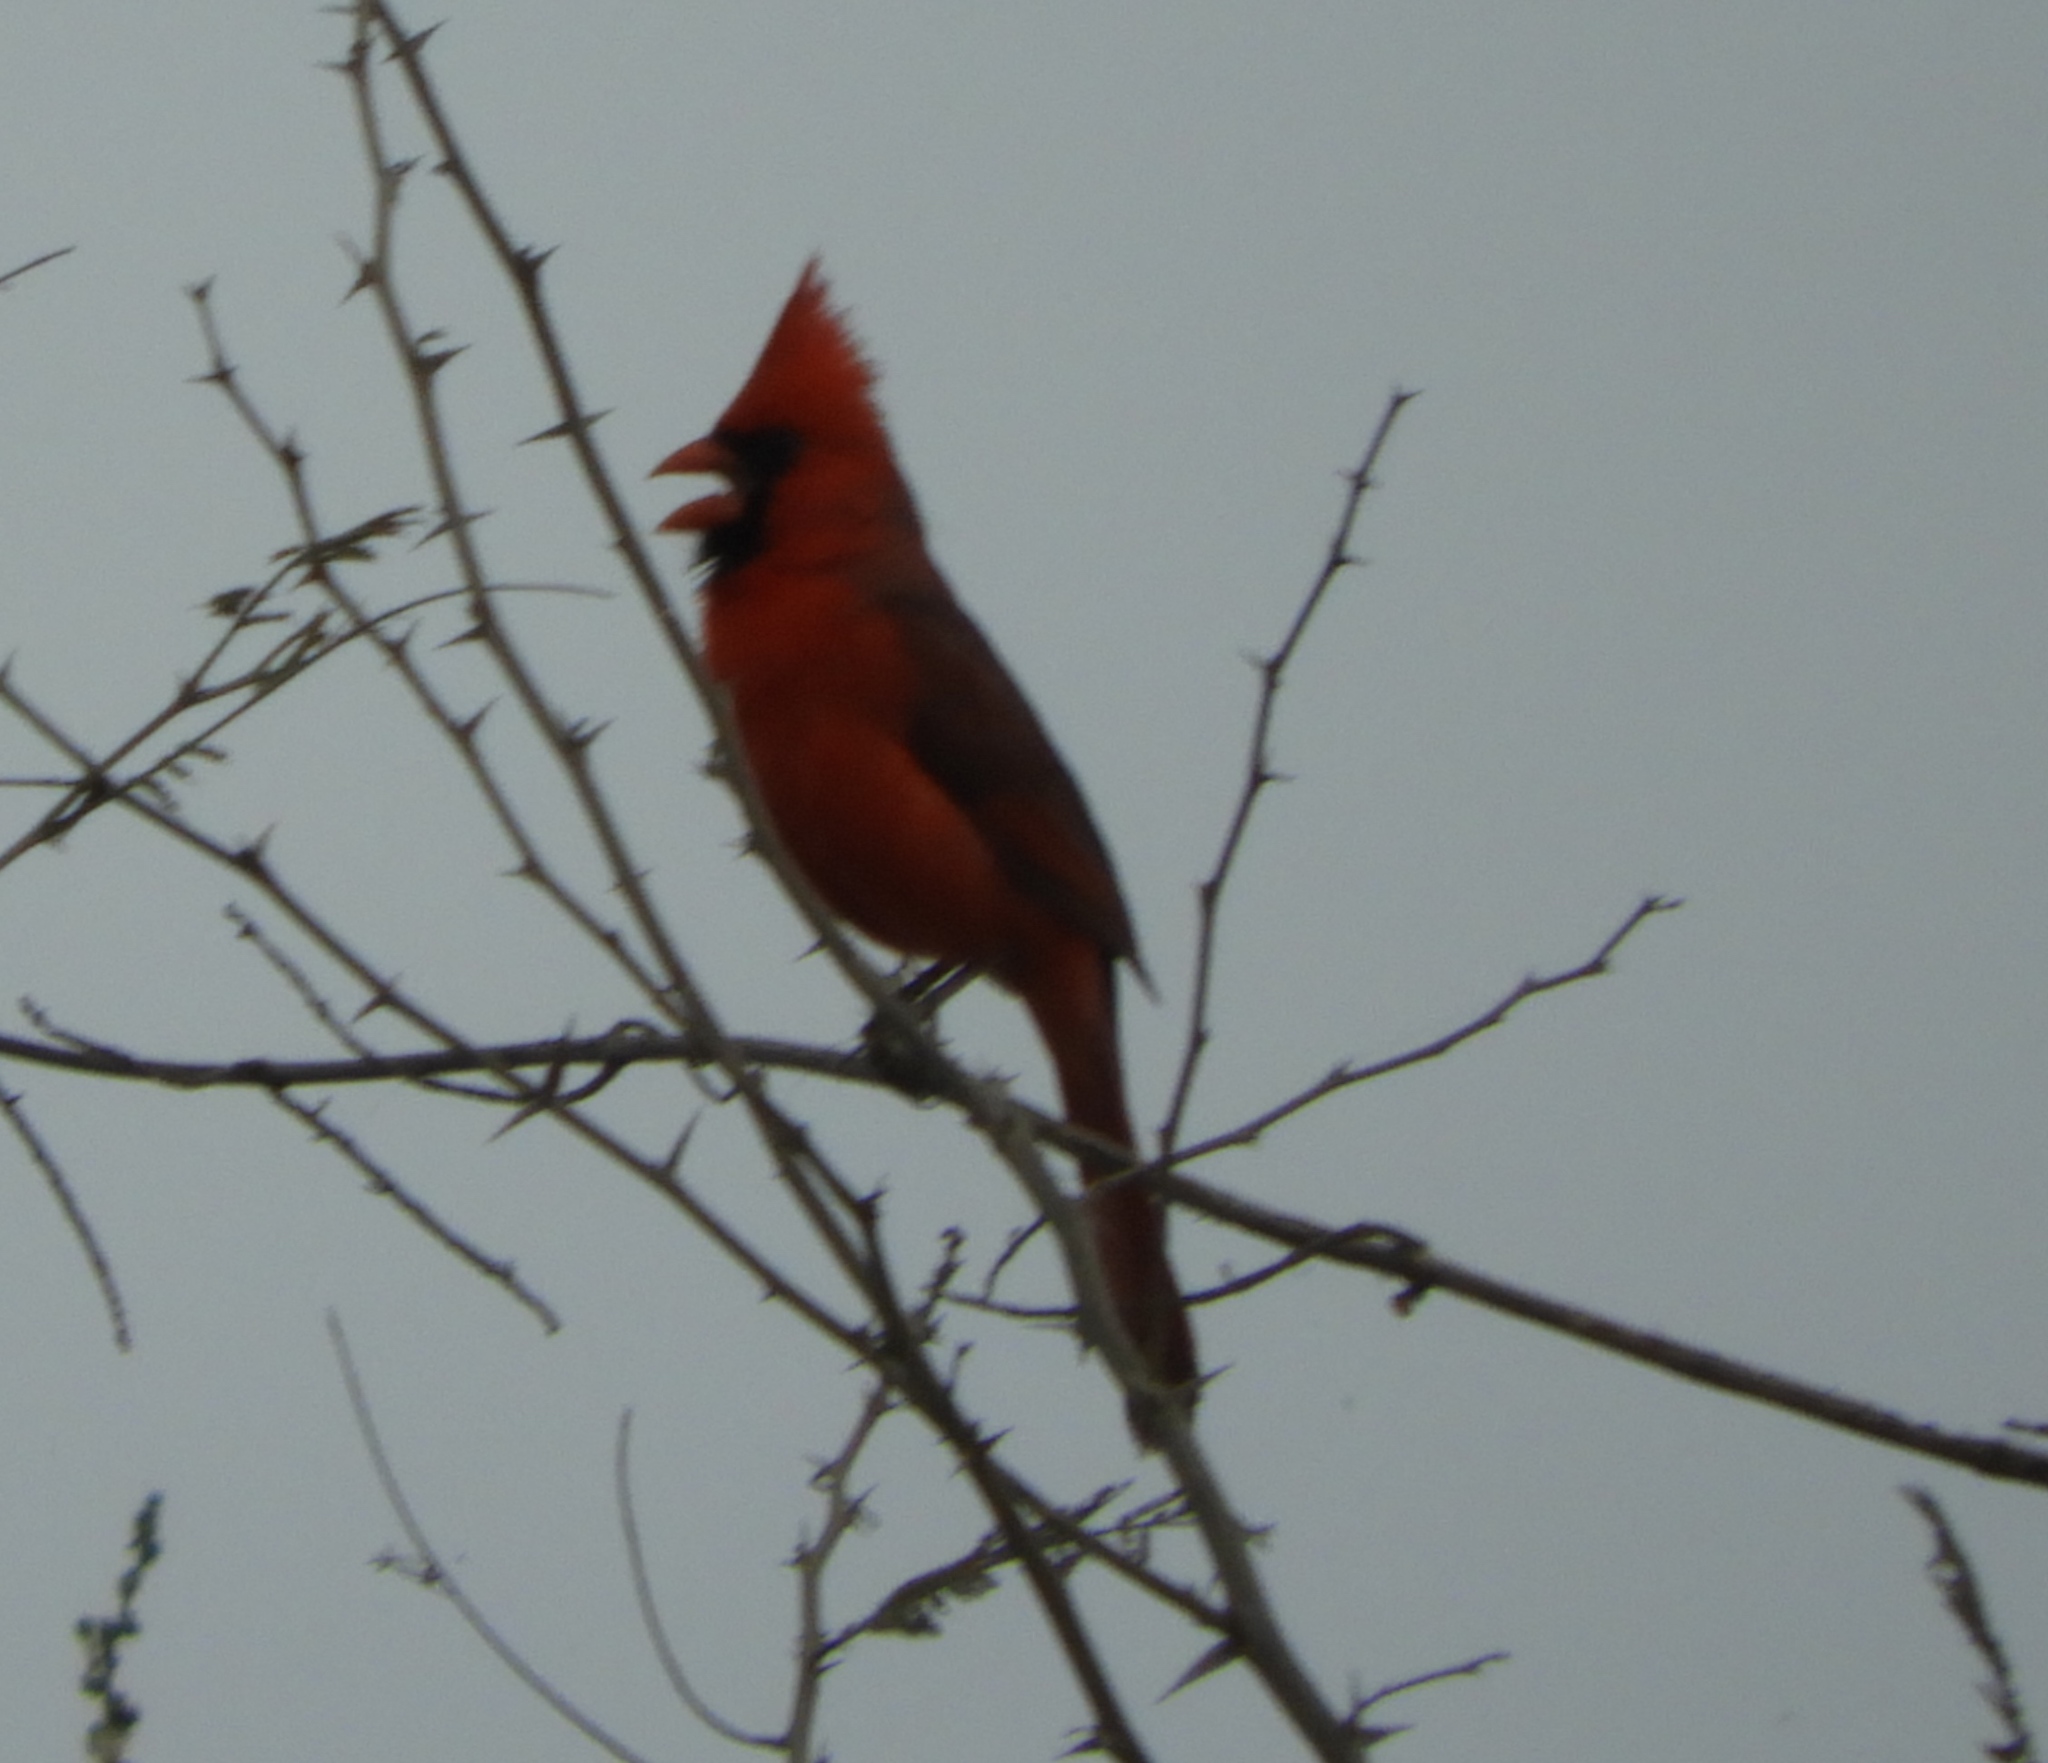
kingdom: Animalia
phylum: Chordata
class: Aves
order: Passeriformes
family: Cardinalidae
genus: Cardinalis
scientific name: Cardinalis cardinalis
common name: Northern cardinal
